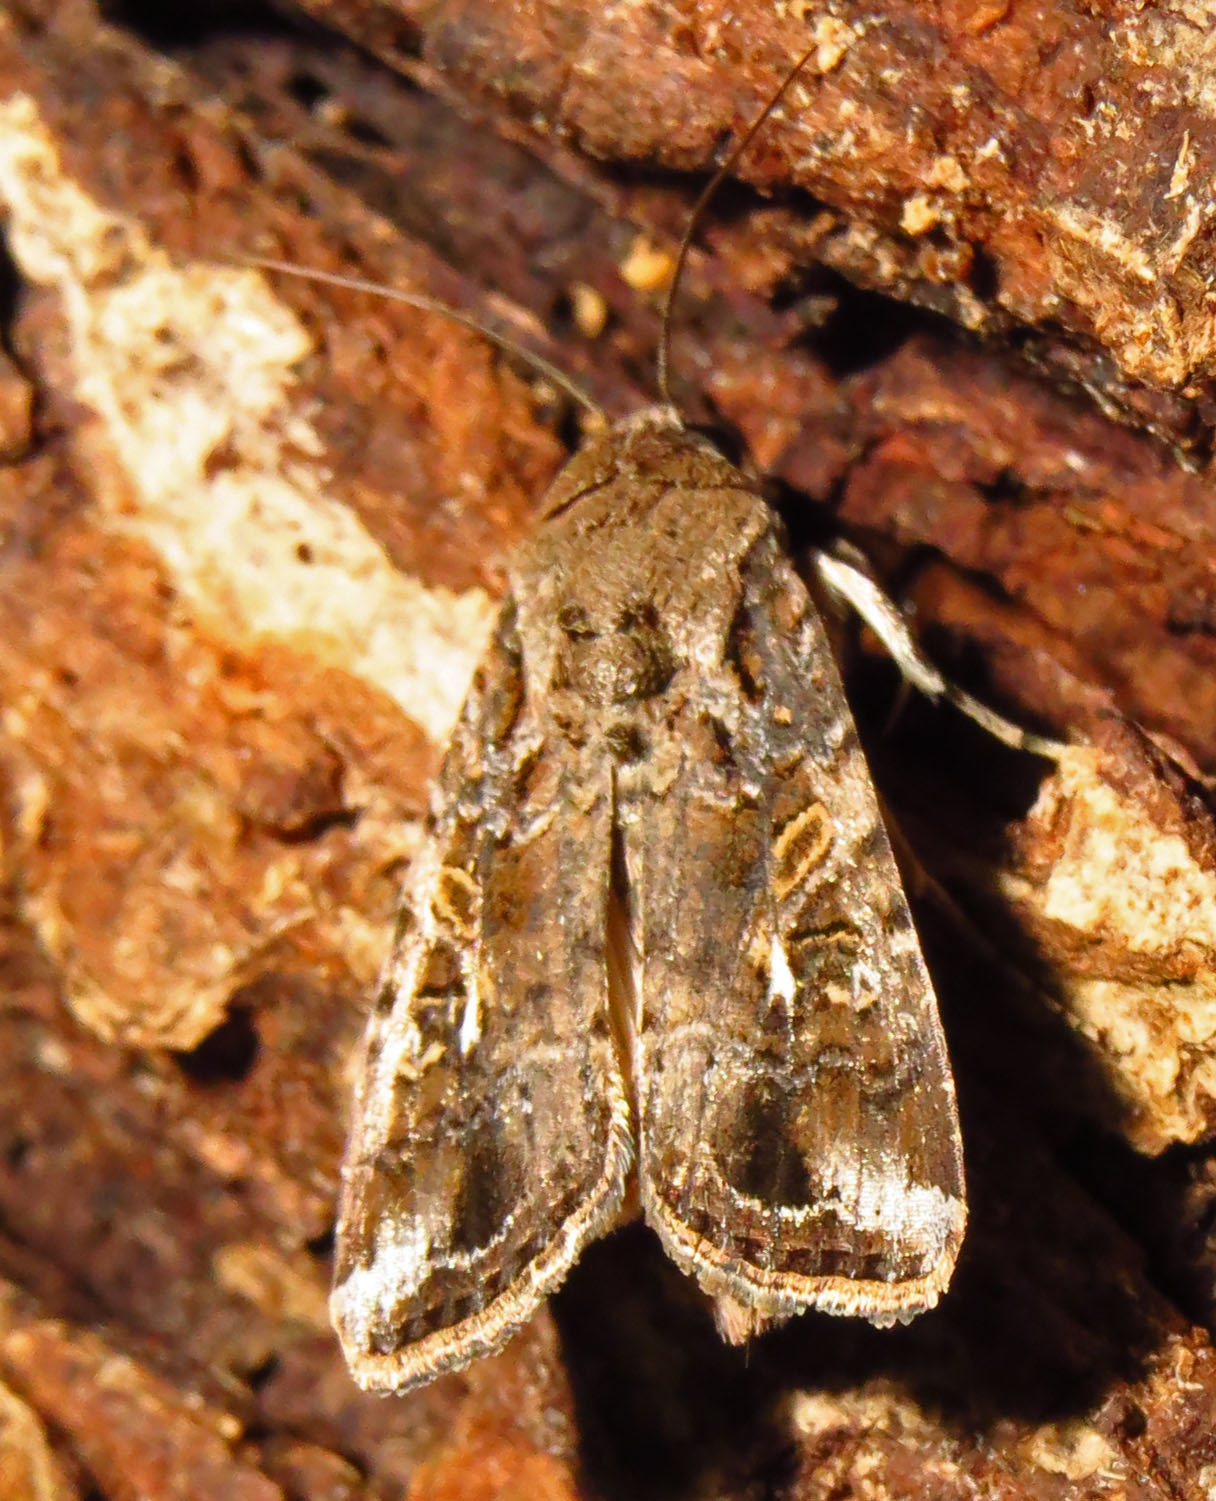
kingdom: Animalia
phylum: Arthropoda
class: Insecta
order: Lepidoptera
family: Noctuidae
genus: Spodoptera
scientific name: Spodoptera frugiperda
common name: Fall armyworm
